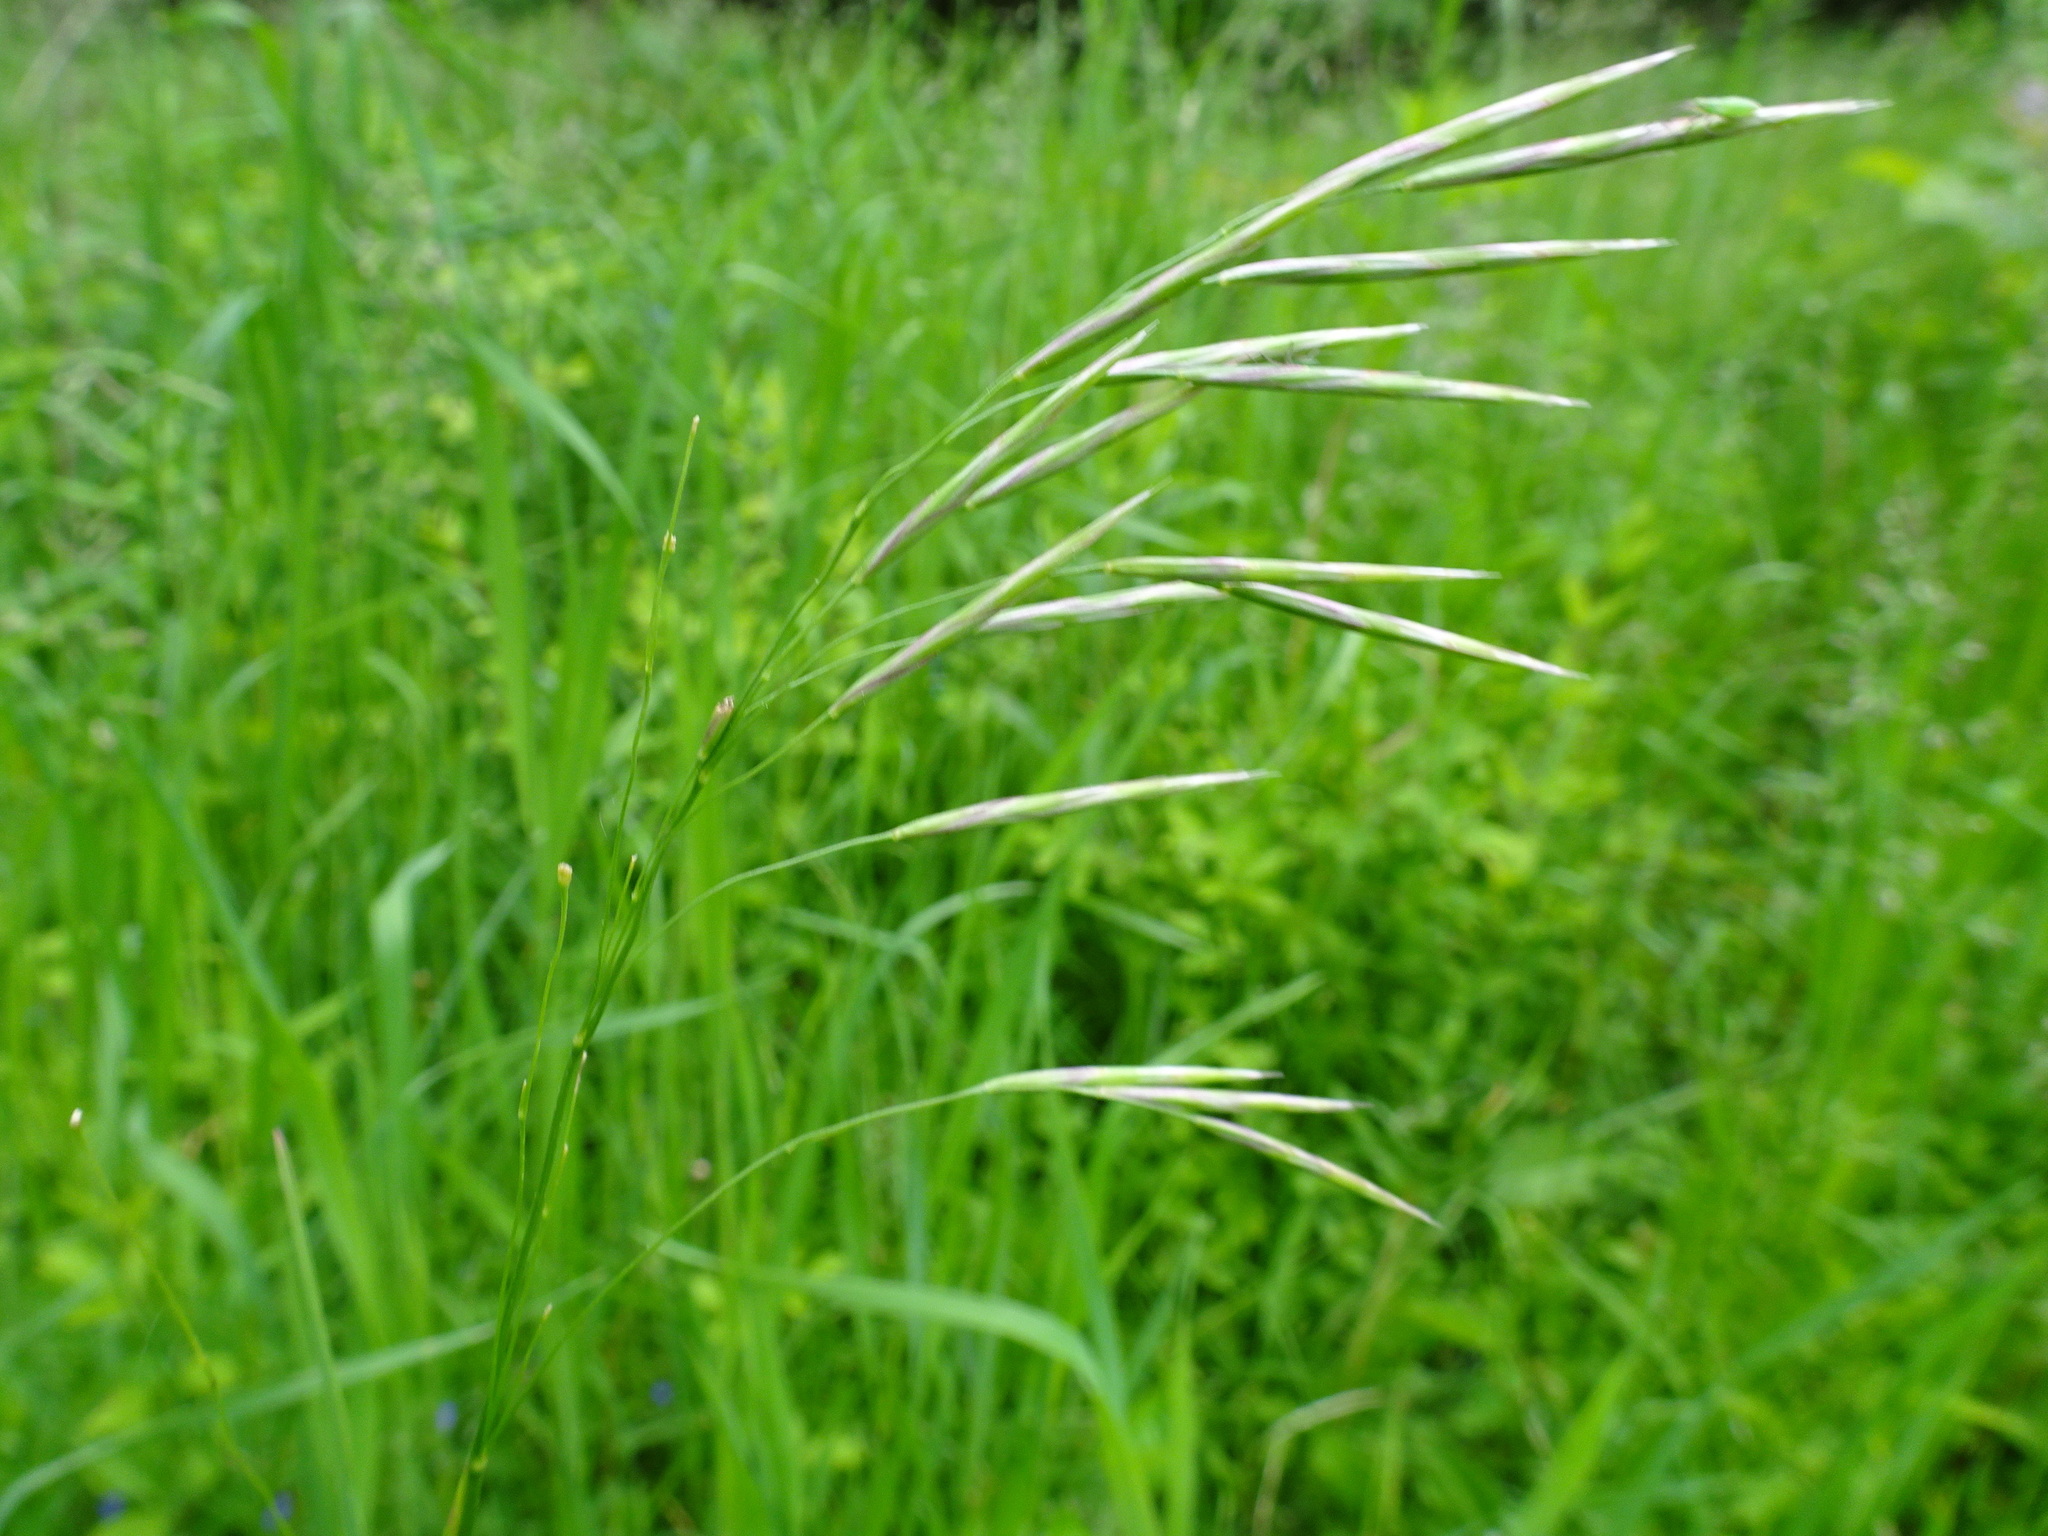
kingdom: Plantae
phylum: Tracheophyta
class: Liliopsida
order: Poales
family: Poaceae
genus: Bromus
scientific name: Bromus inermis
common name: Smooth brome
